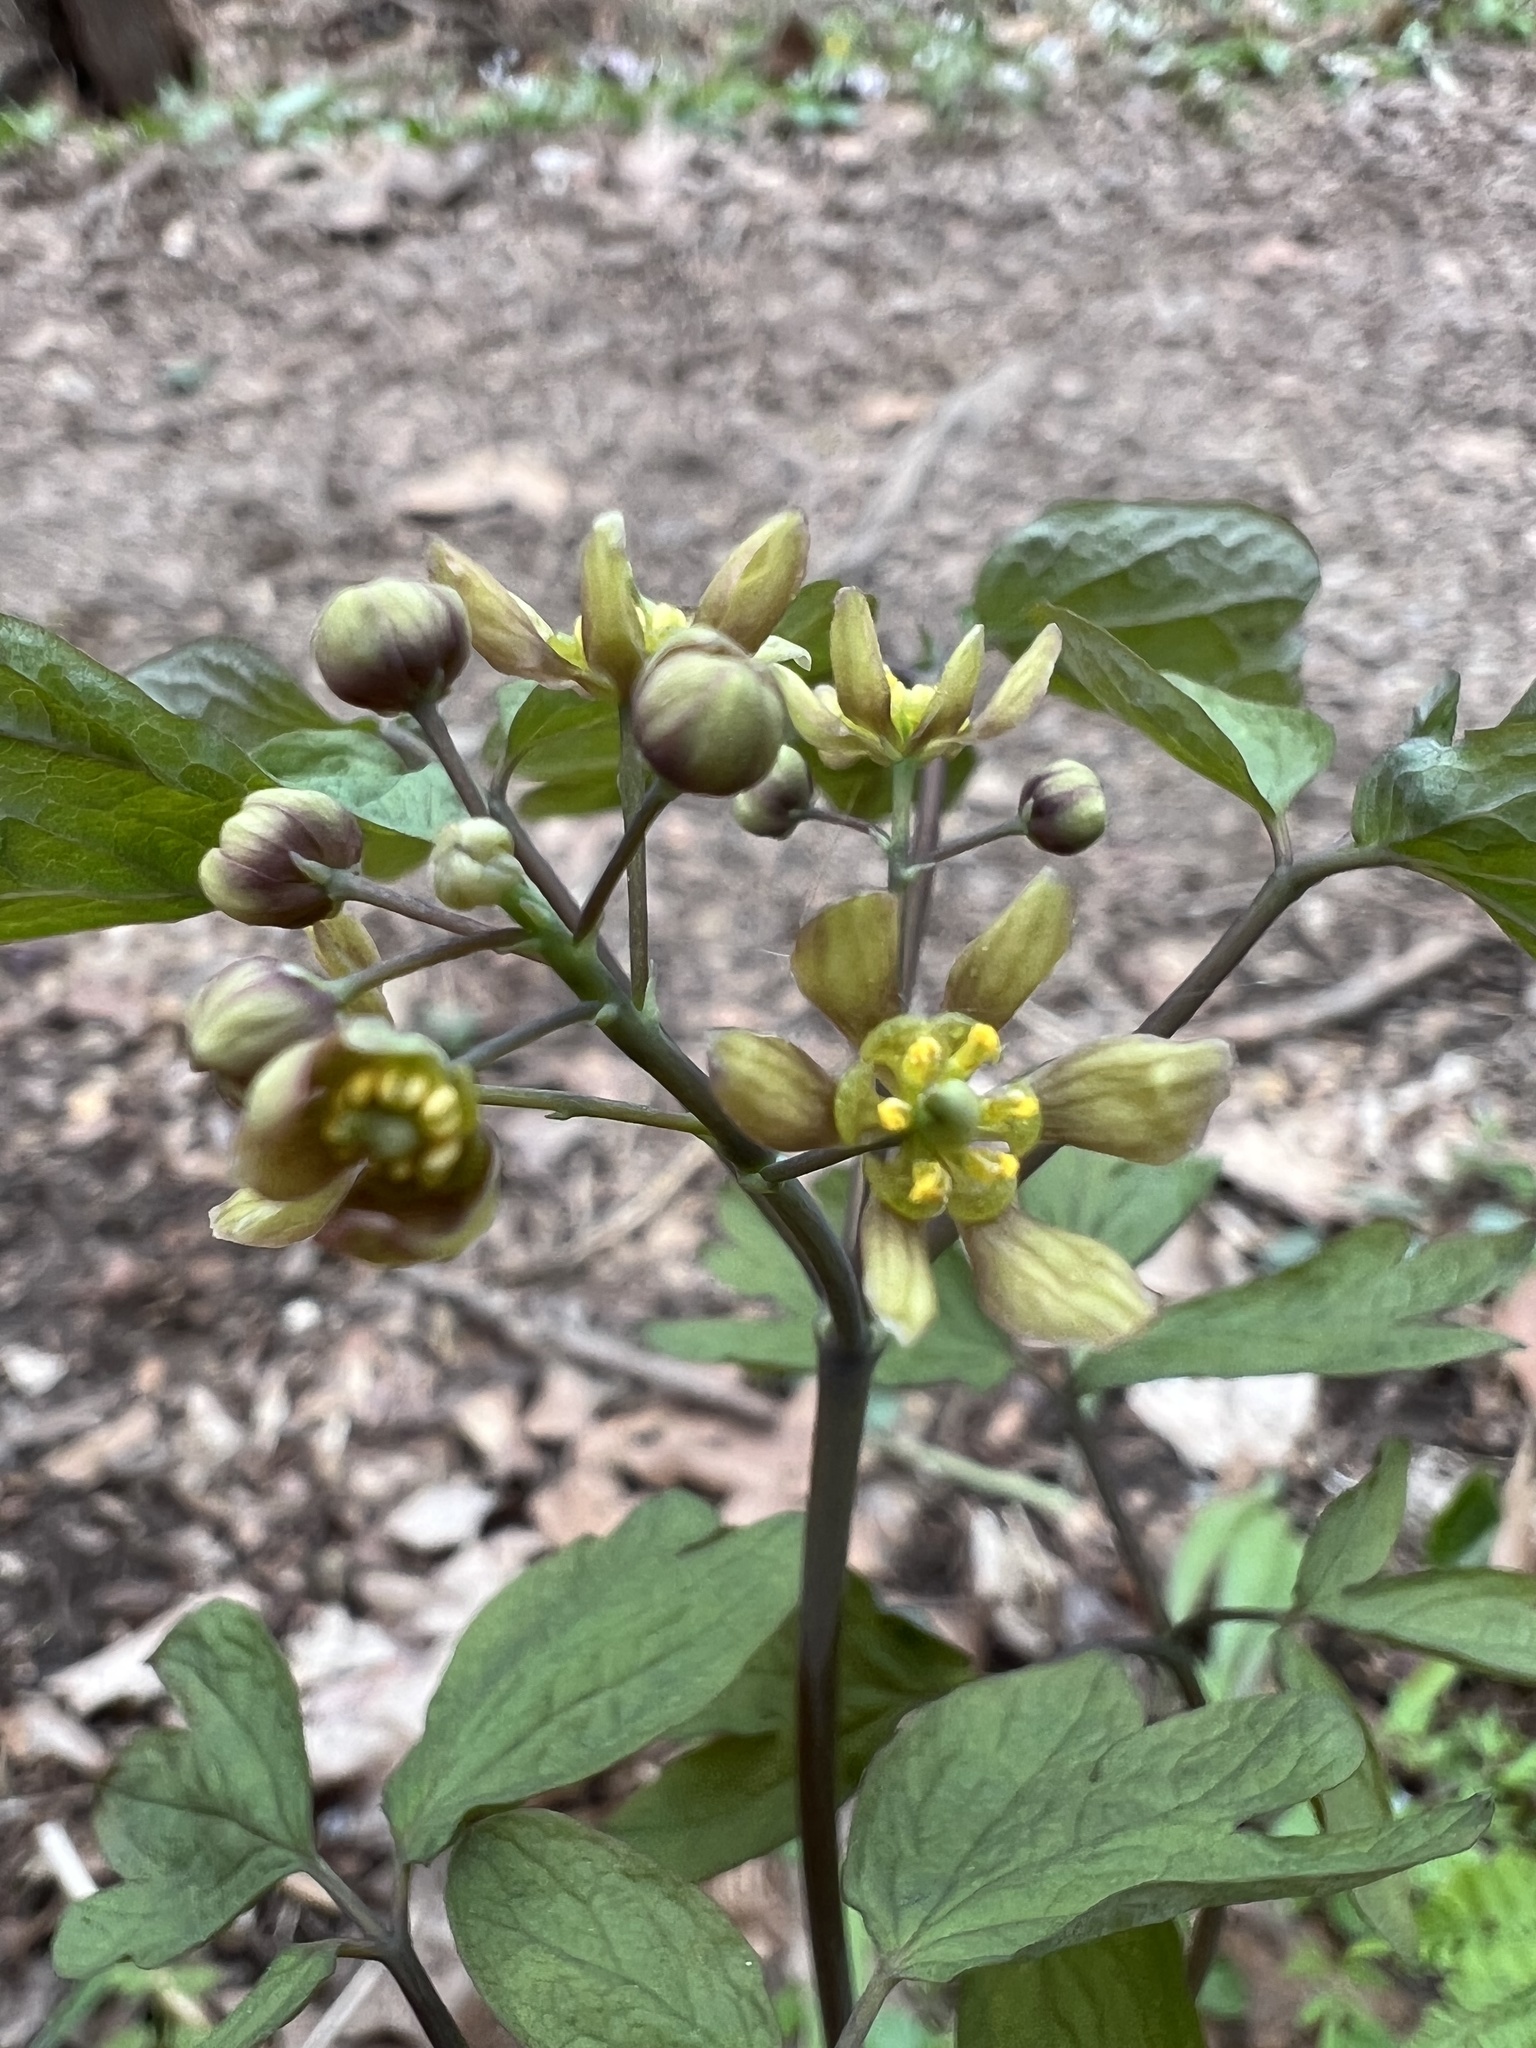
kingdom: Plantae
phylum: Tracheophyta
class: Magnoliopsida
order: Ranunculales
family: Berberidaceae
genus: Caulophyllum
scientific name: Caulophyllum thalictroides
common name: Blue cohosh
